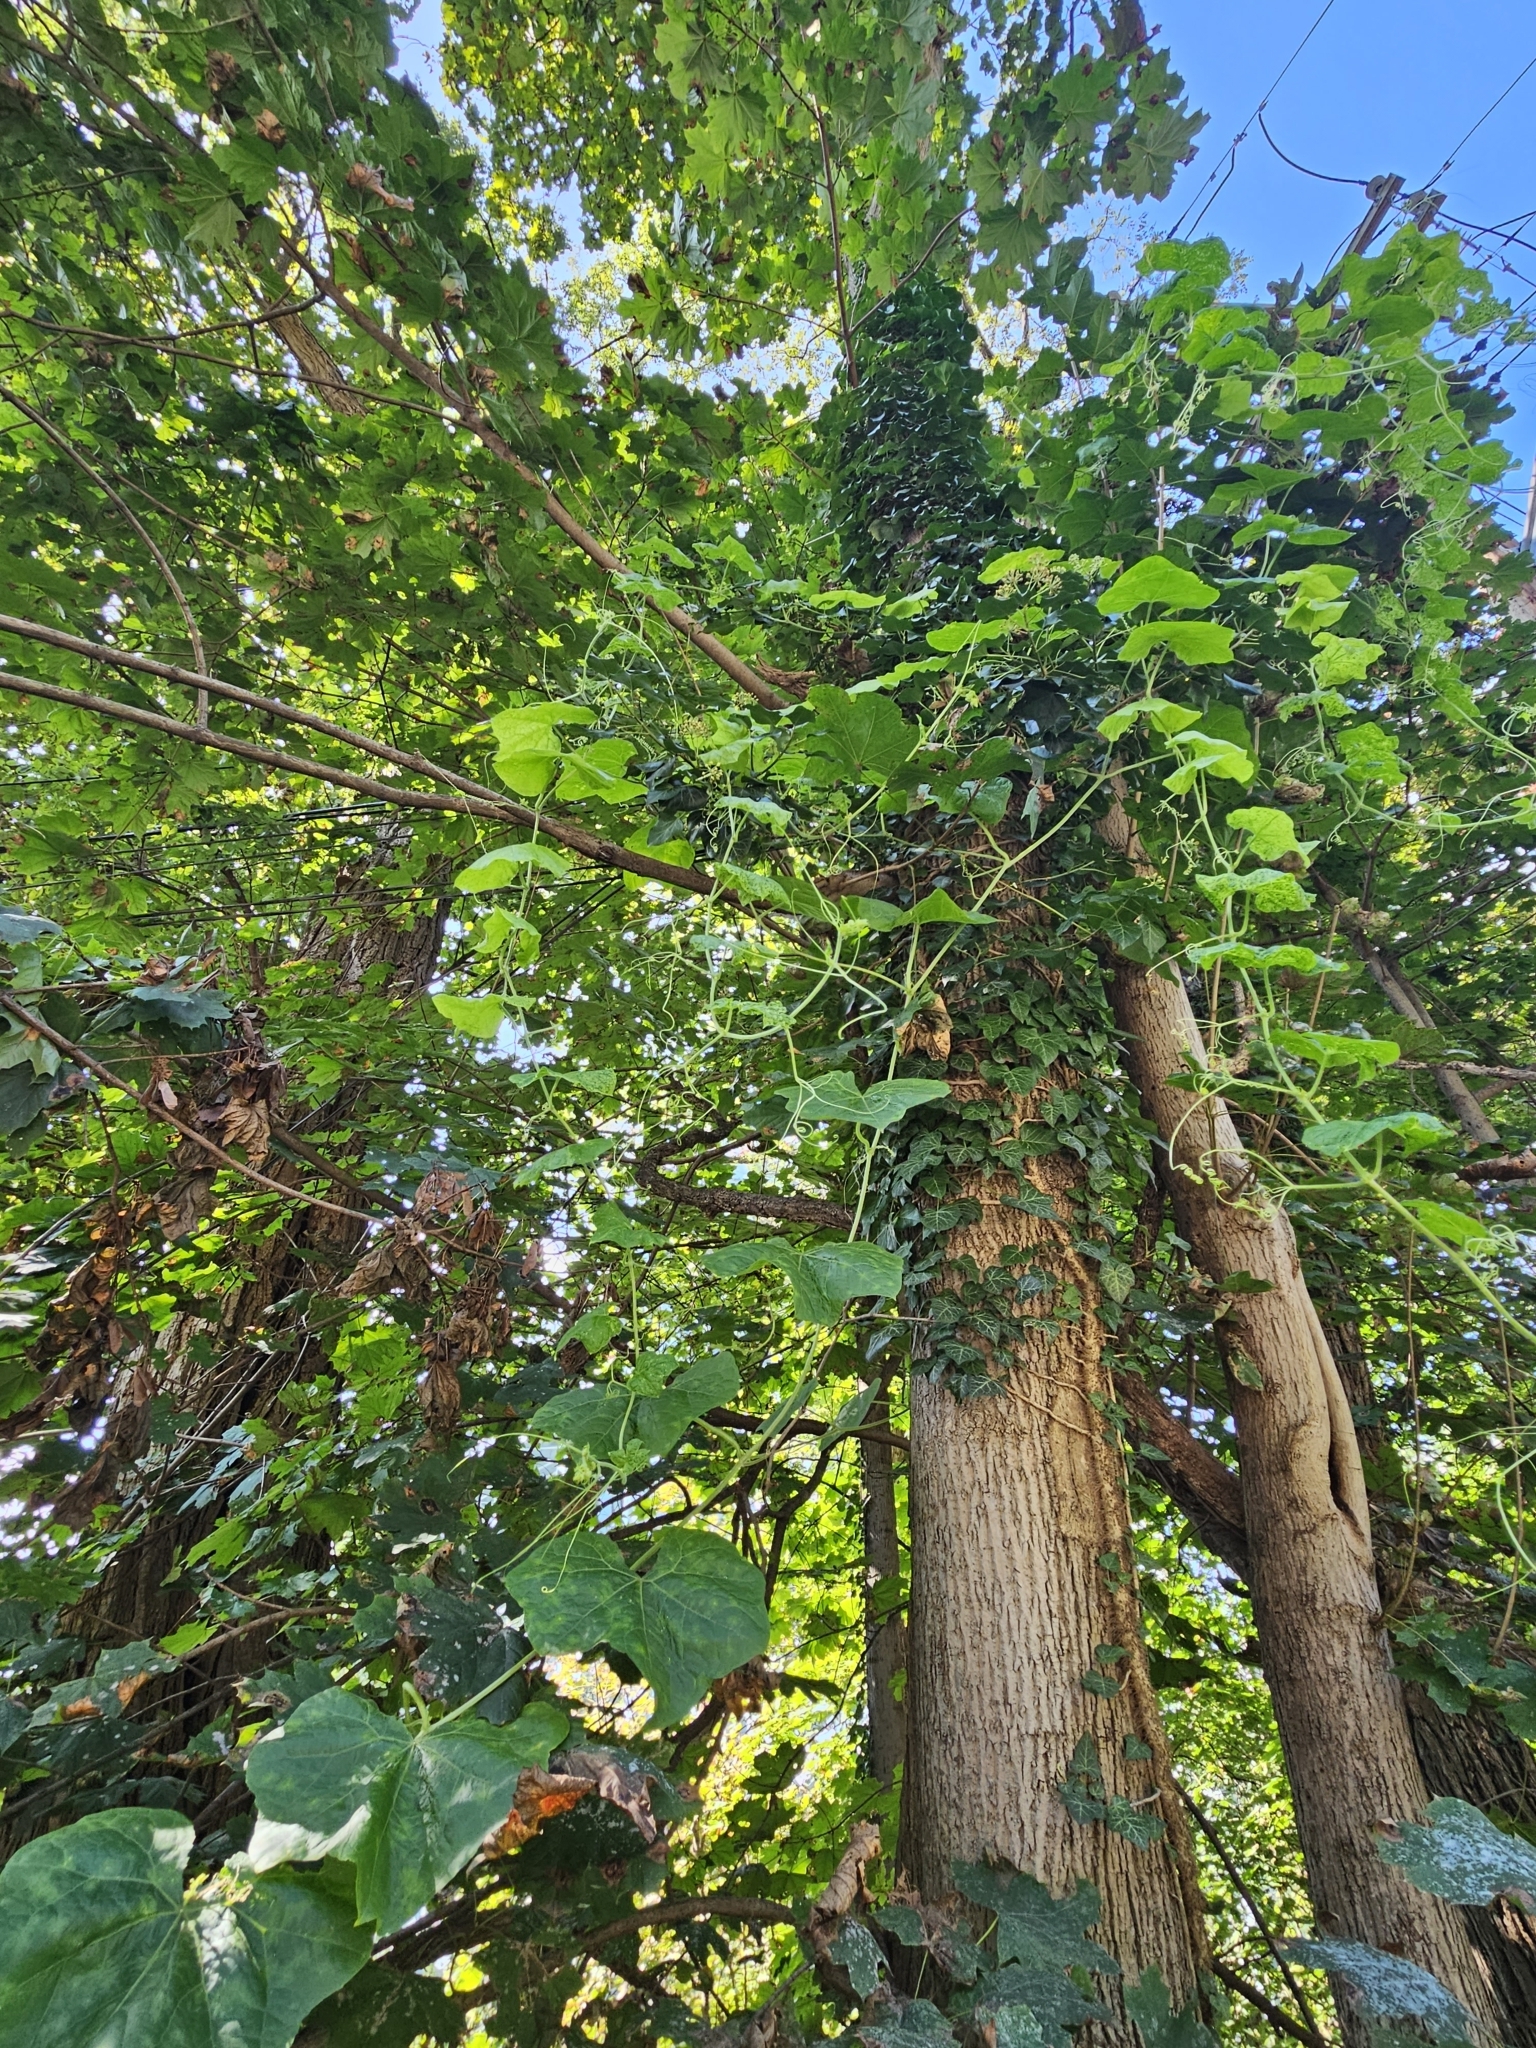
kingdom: Plantae
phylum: Tracheophyta
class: Magnoliopsida
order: Cucurbitales
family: Cucurbitaceae
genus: Sicyos
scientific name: Sicyos angulatus
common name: Angled burr cucumber
